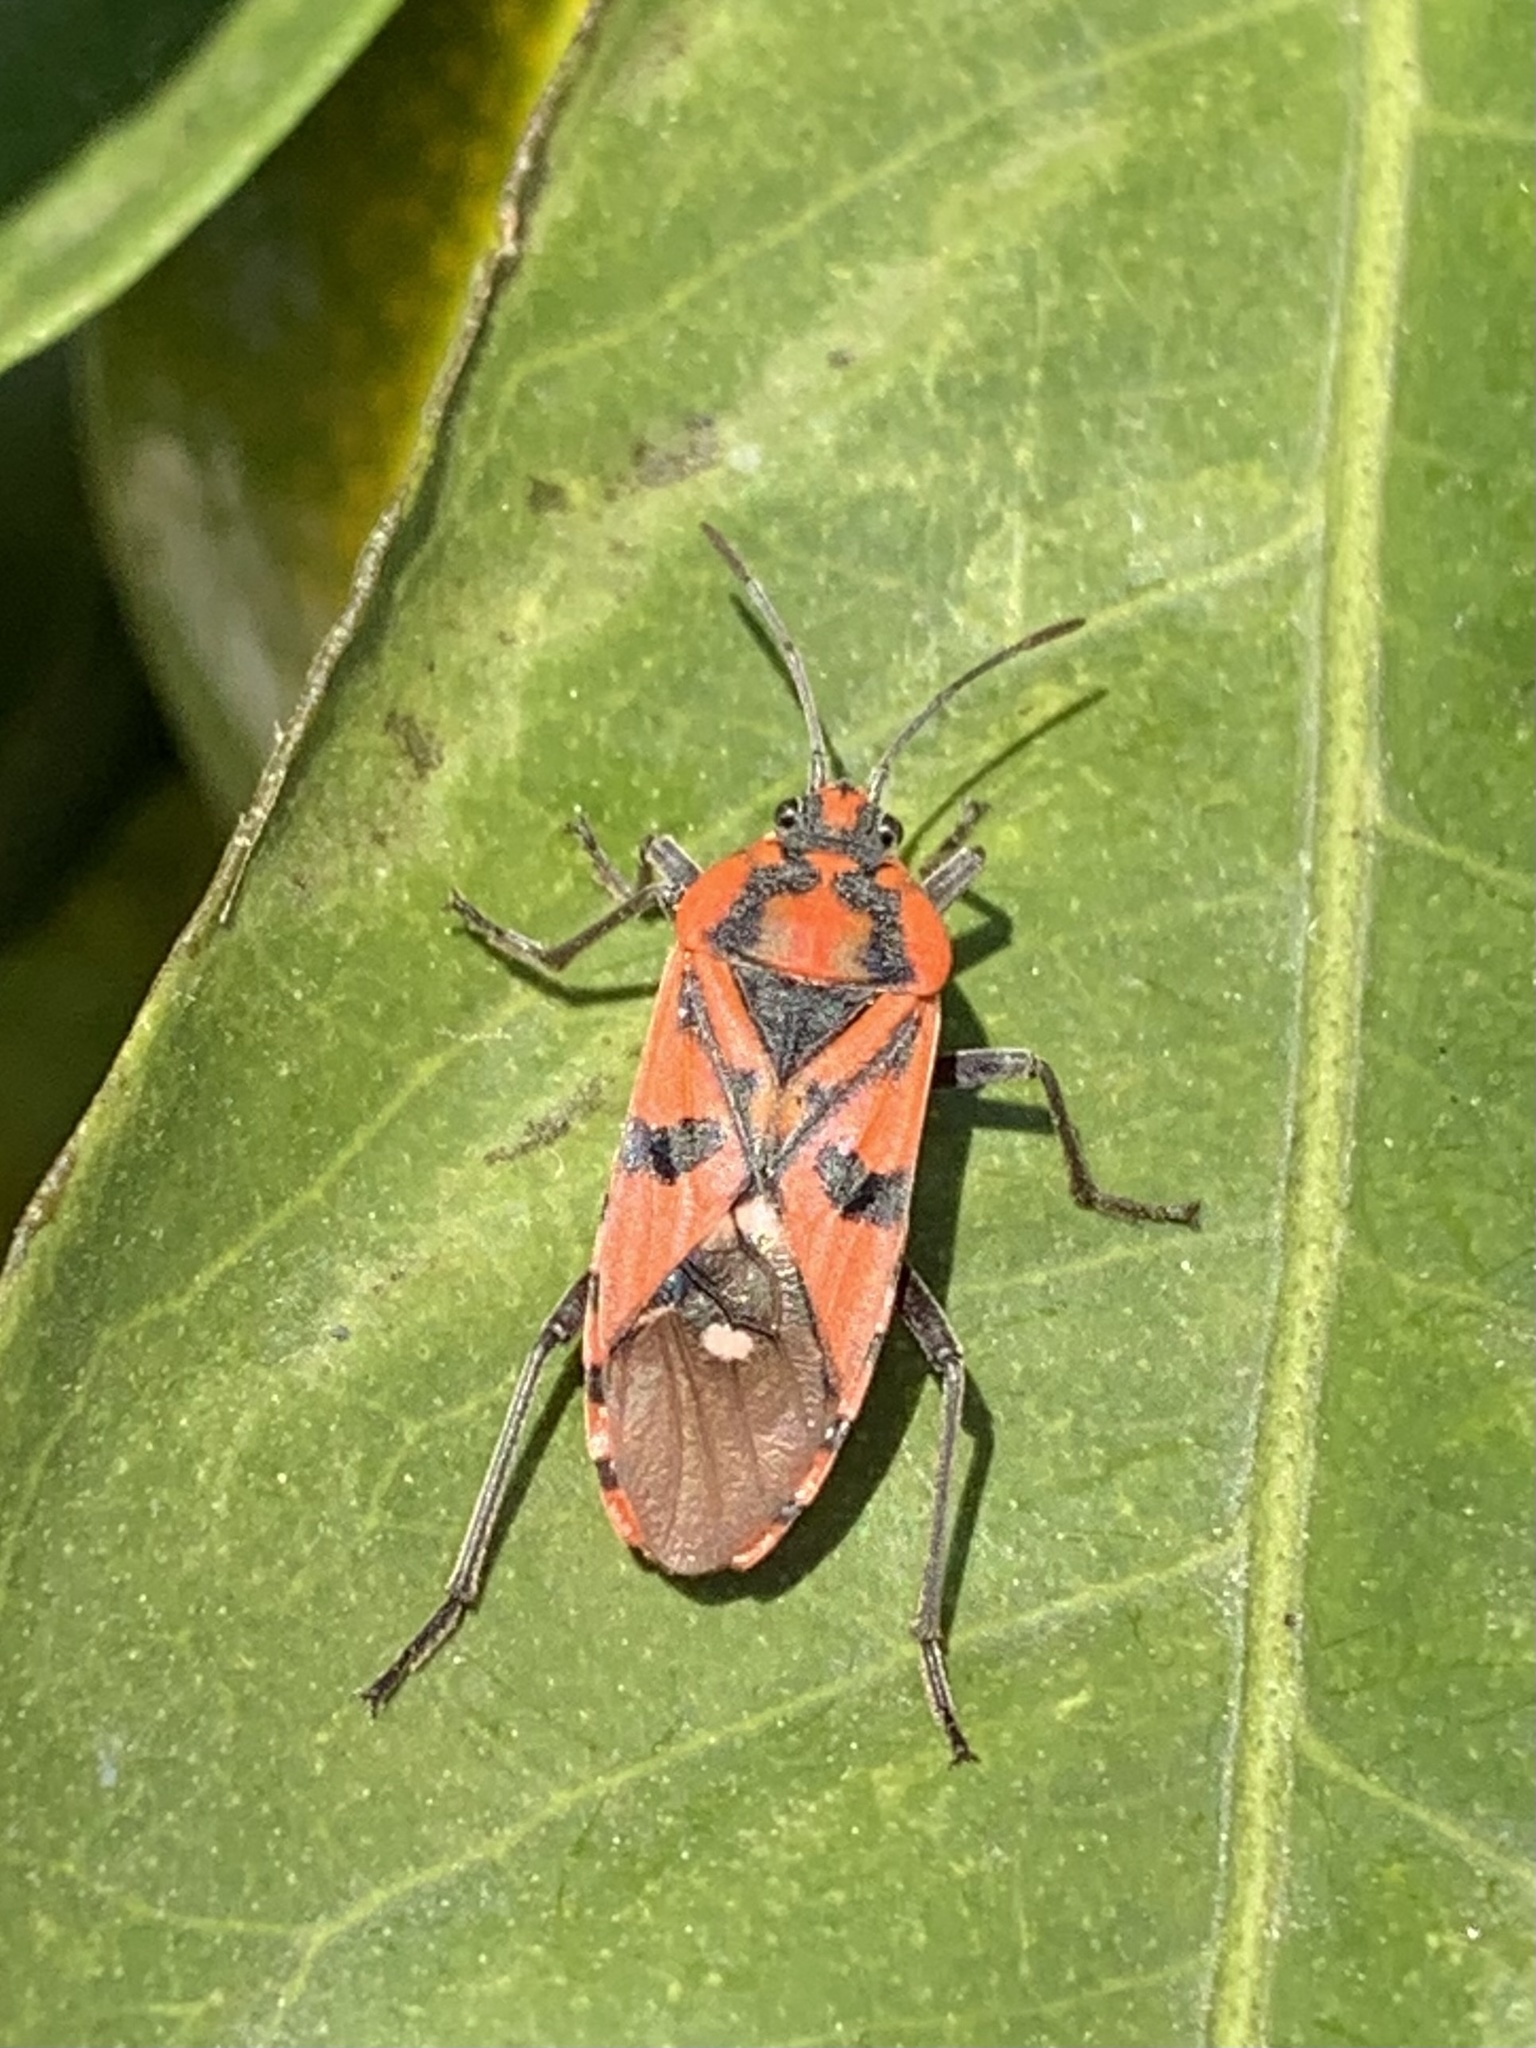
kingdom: Animalia
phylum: Arthropoda
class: Insecta
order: Hemiptera
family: Lygaeidae
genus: Spilostethus
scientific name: Spilostethus pandurus
